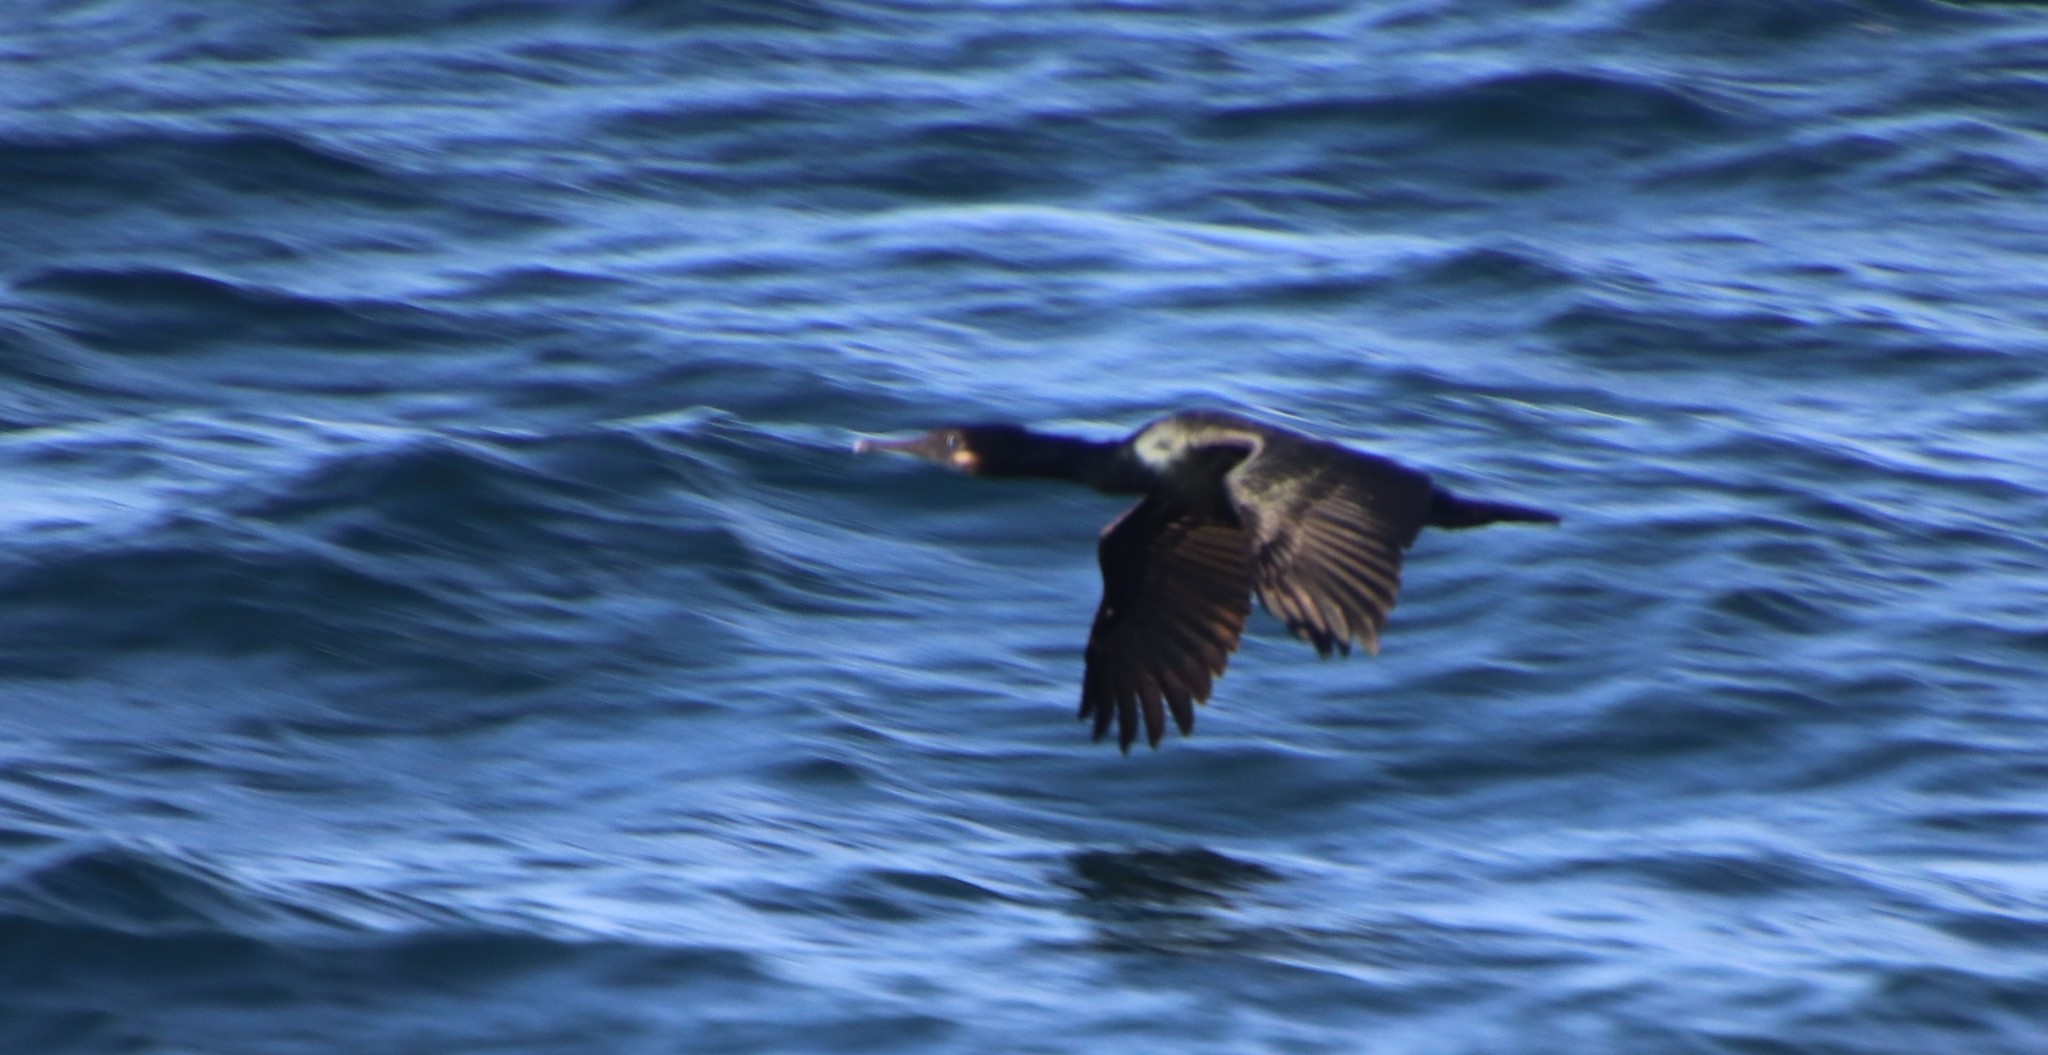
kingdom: Animalia
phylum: Chordata
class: Aves
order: Suliformes
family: Phalacrocoracidae
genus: Urile
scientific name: Urile penicillatus
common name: Brandt's cormorant
